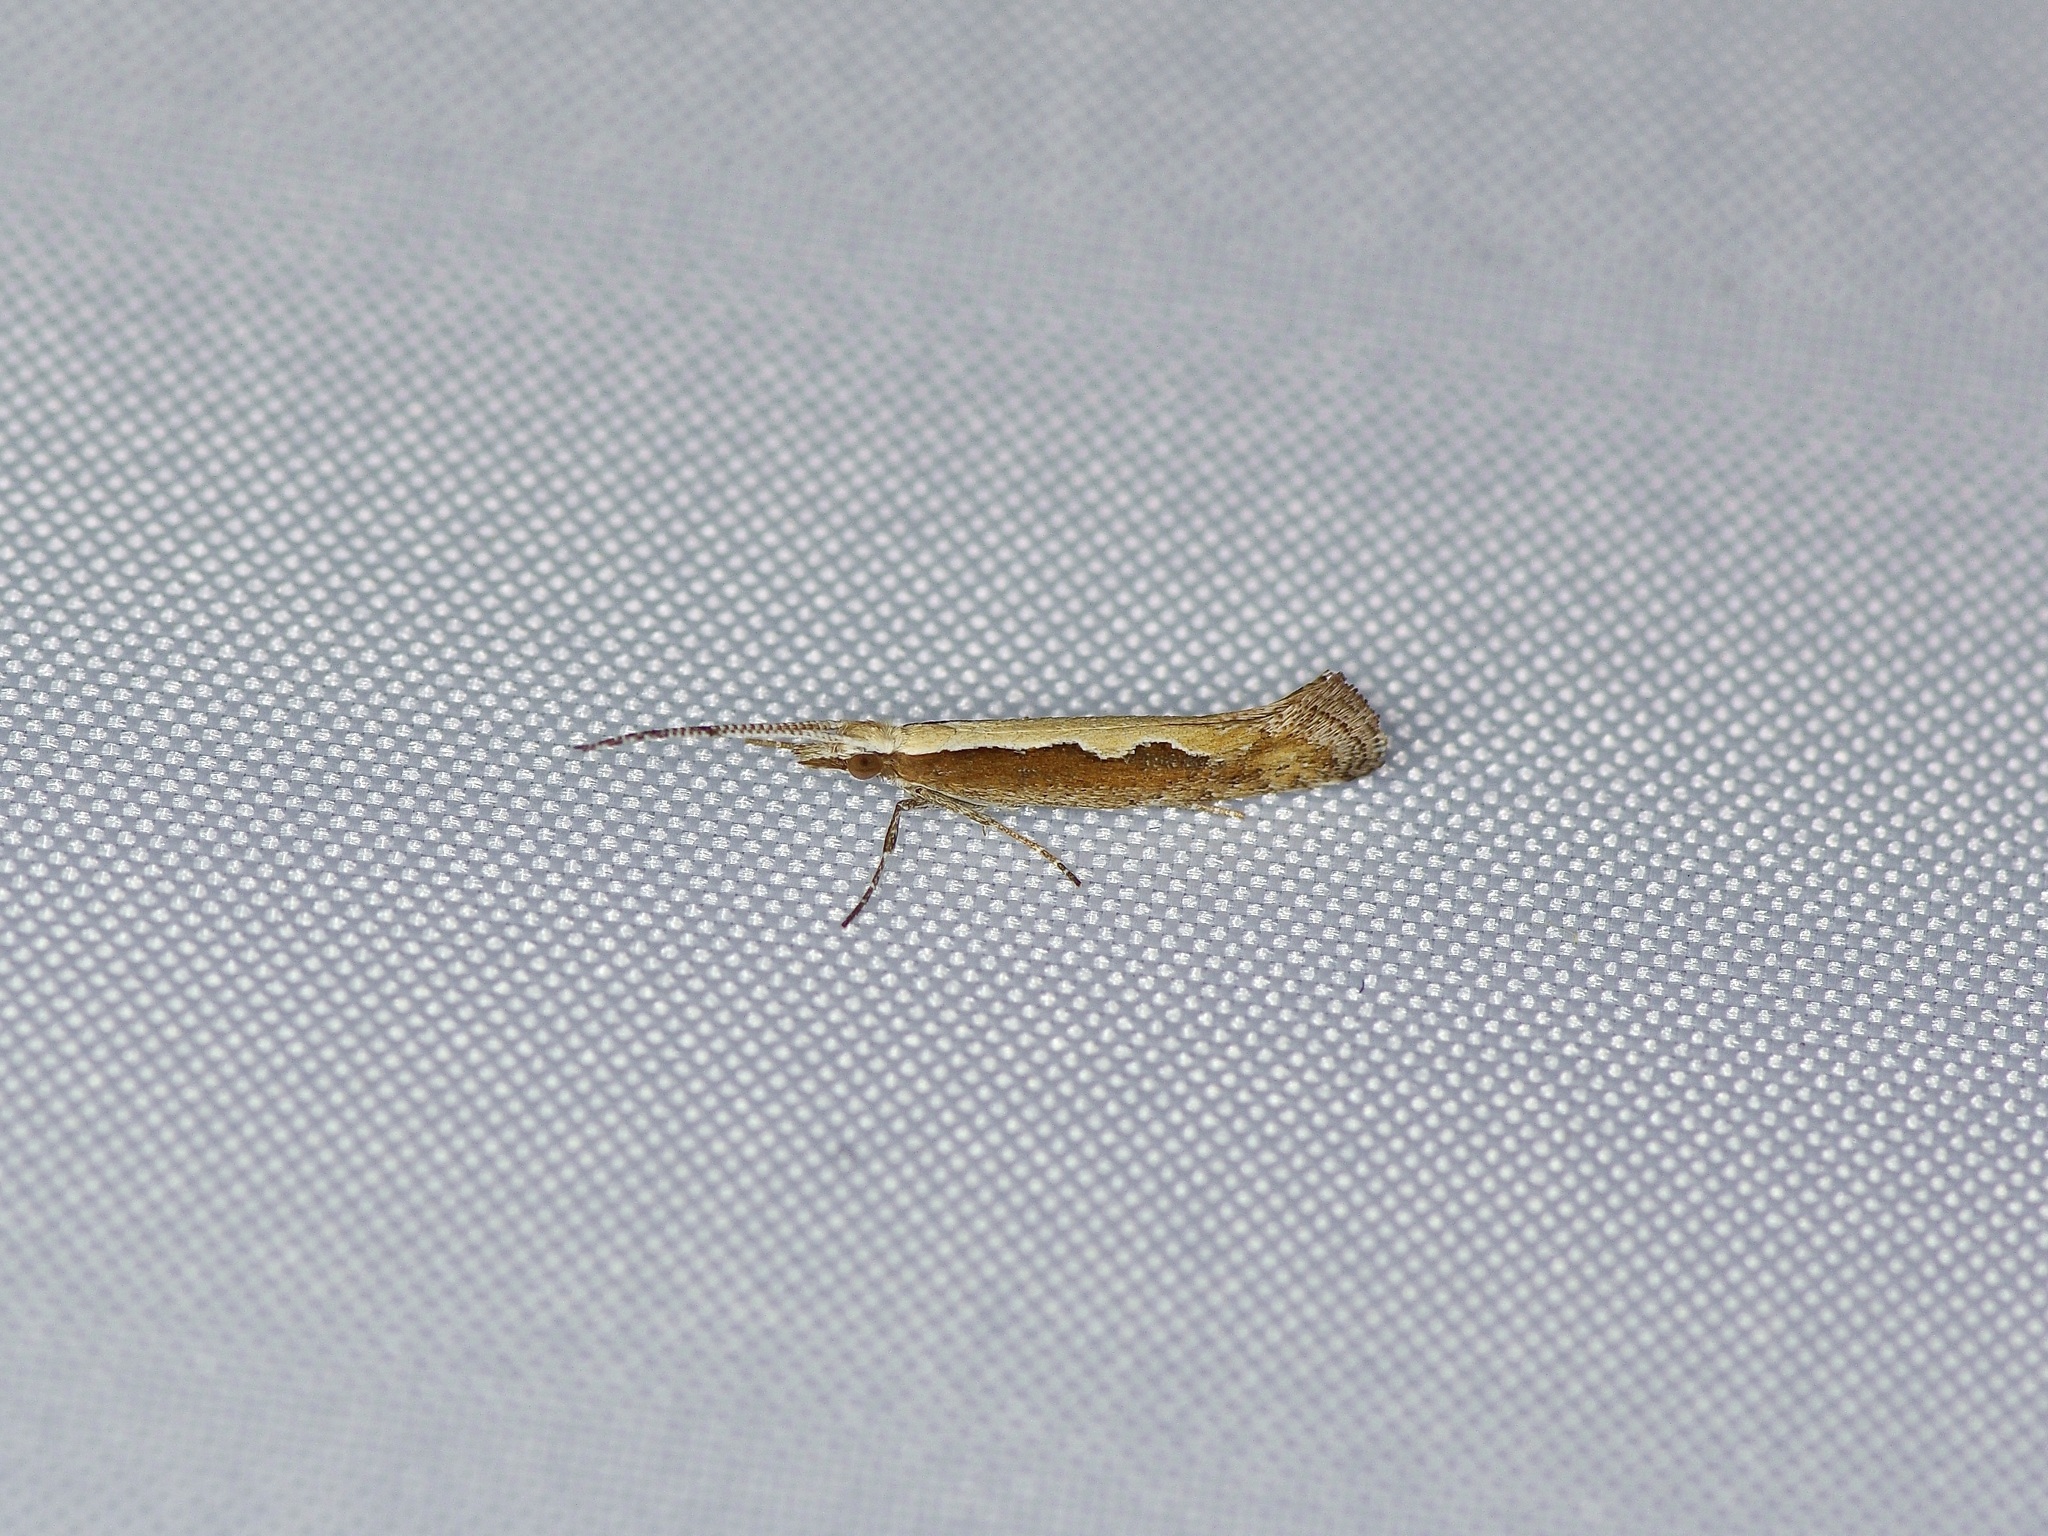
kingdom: Animalia
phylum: Arthropoda
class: Insecta
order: Lepidoptera
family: Plutellidae
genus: Plutella
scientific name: Plutella xylostella
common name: Diamond-back moth
